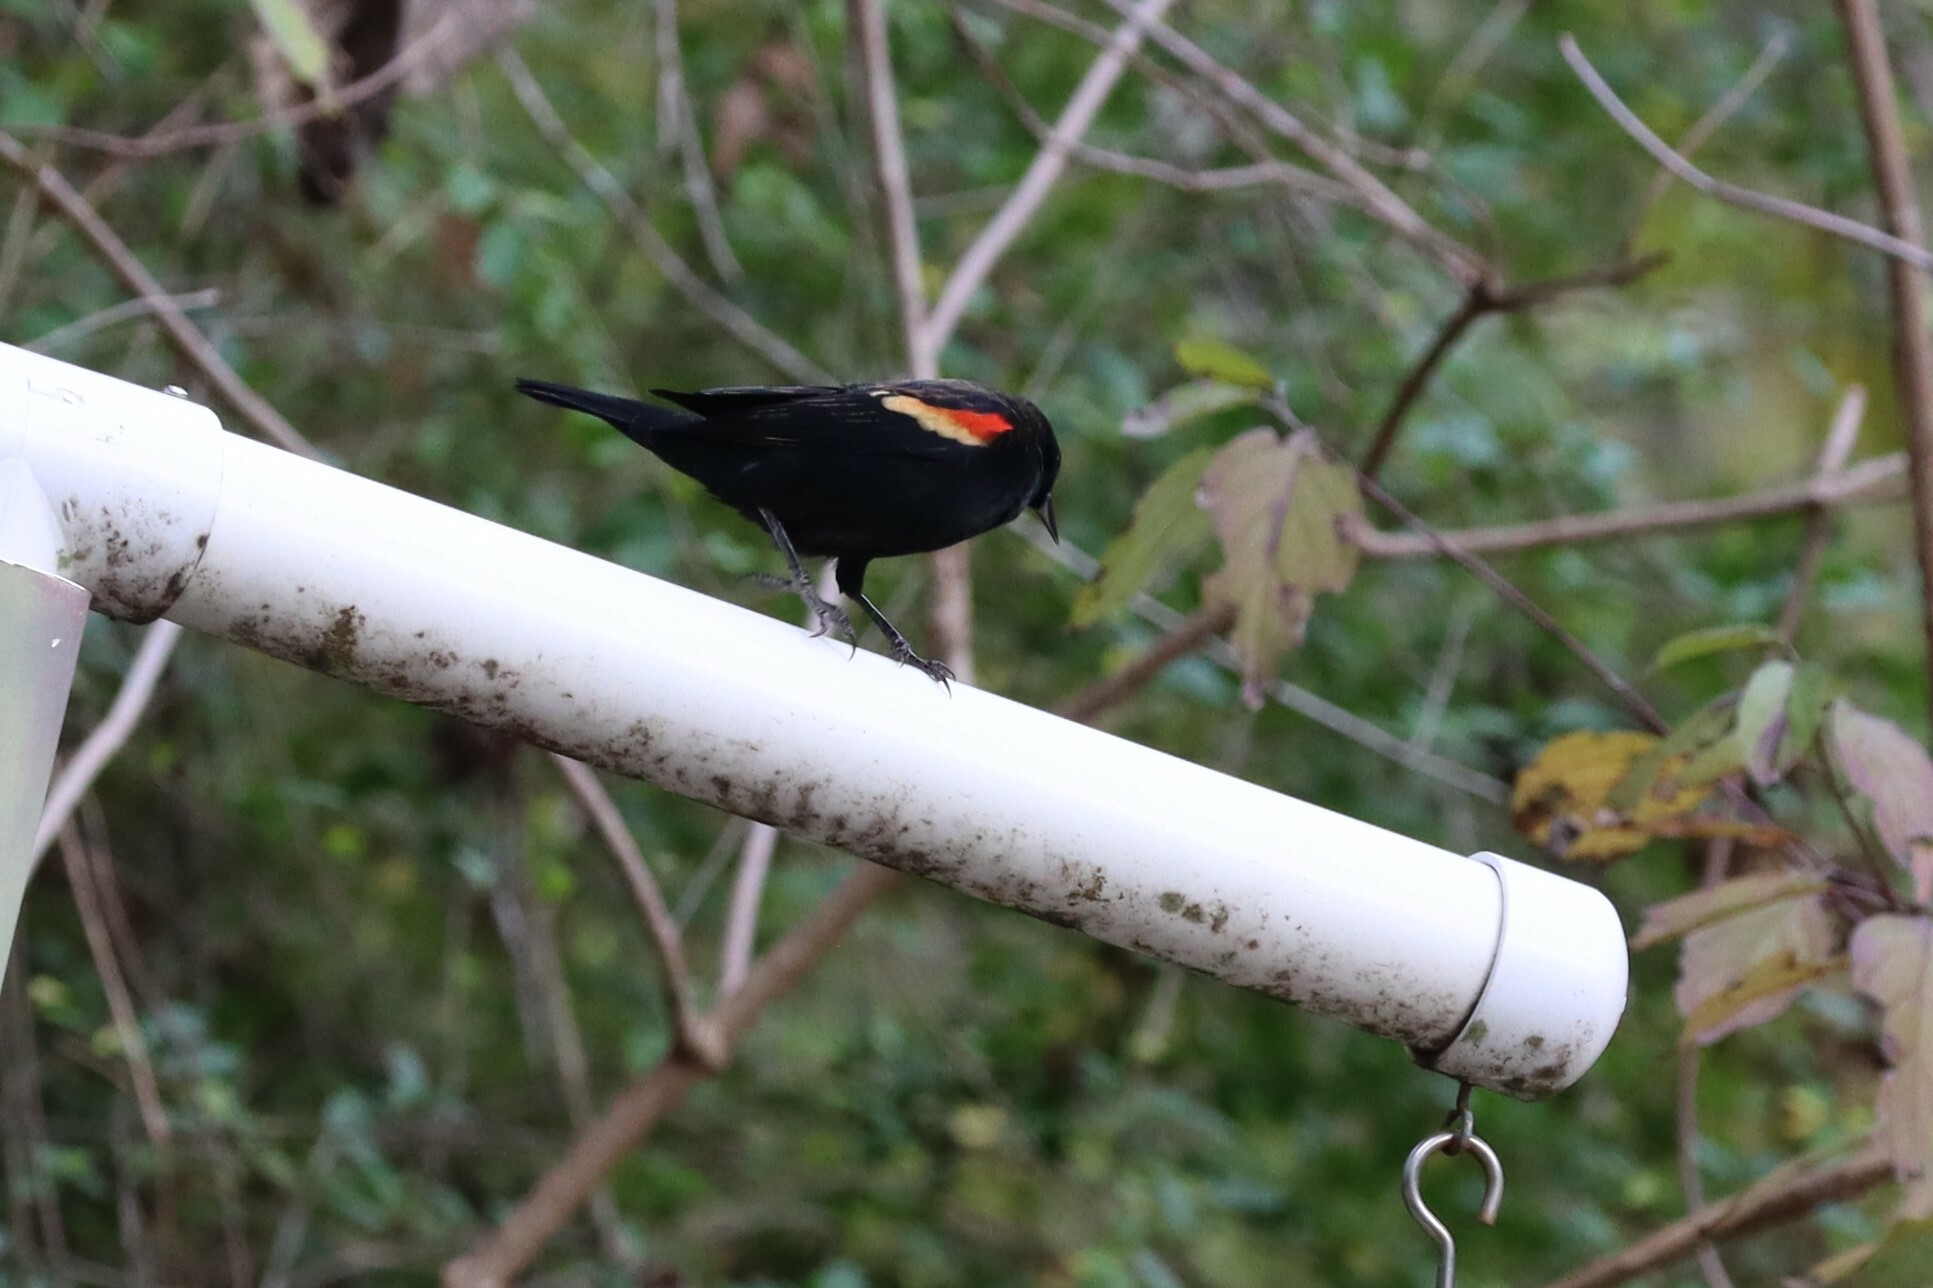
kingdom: Animalia
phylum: Chordata
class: Aves
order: Passeriformes
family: Icteridae
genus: Agelaius
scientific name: Agelaius phoeniceus
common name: Red-winged blackbird
